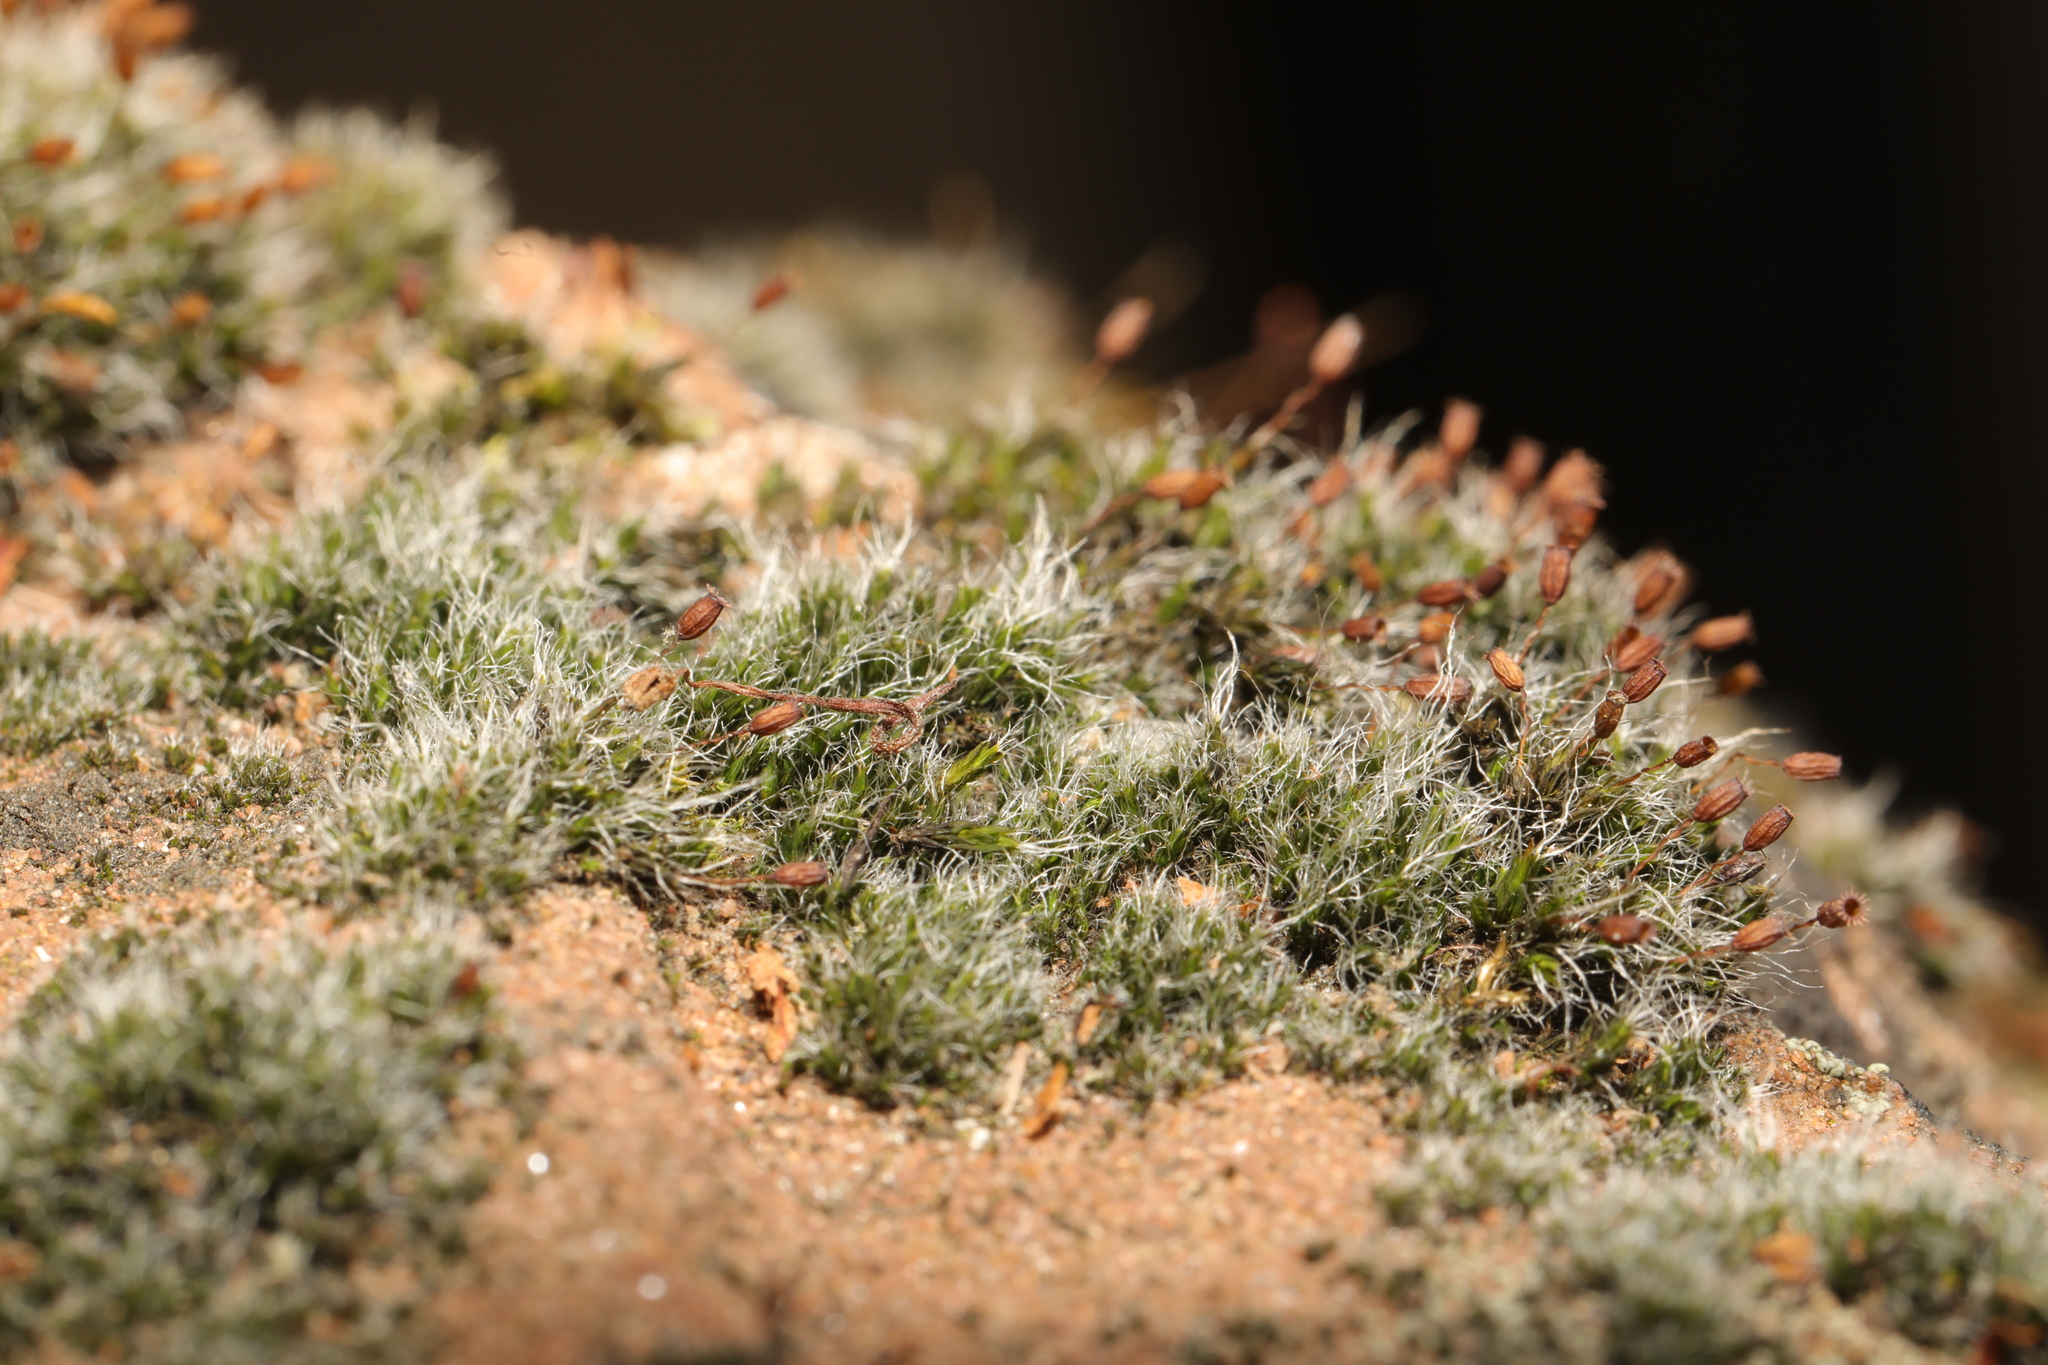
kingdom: Plantae
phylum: Bryophyta
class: Bryopsida
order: Grimmiales
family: Grimmiaceae
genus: Grimmia
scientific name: Grimmia pulvinata
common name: Grey-cushioned grimmia
